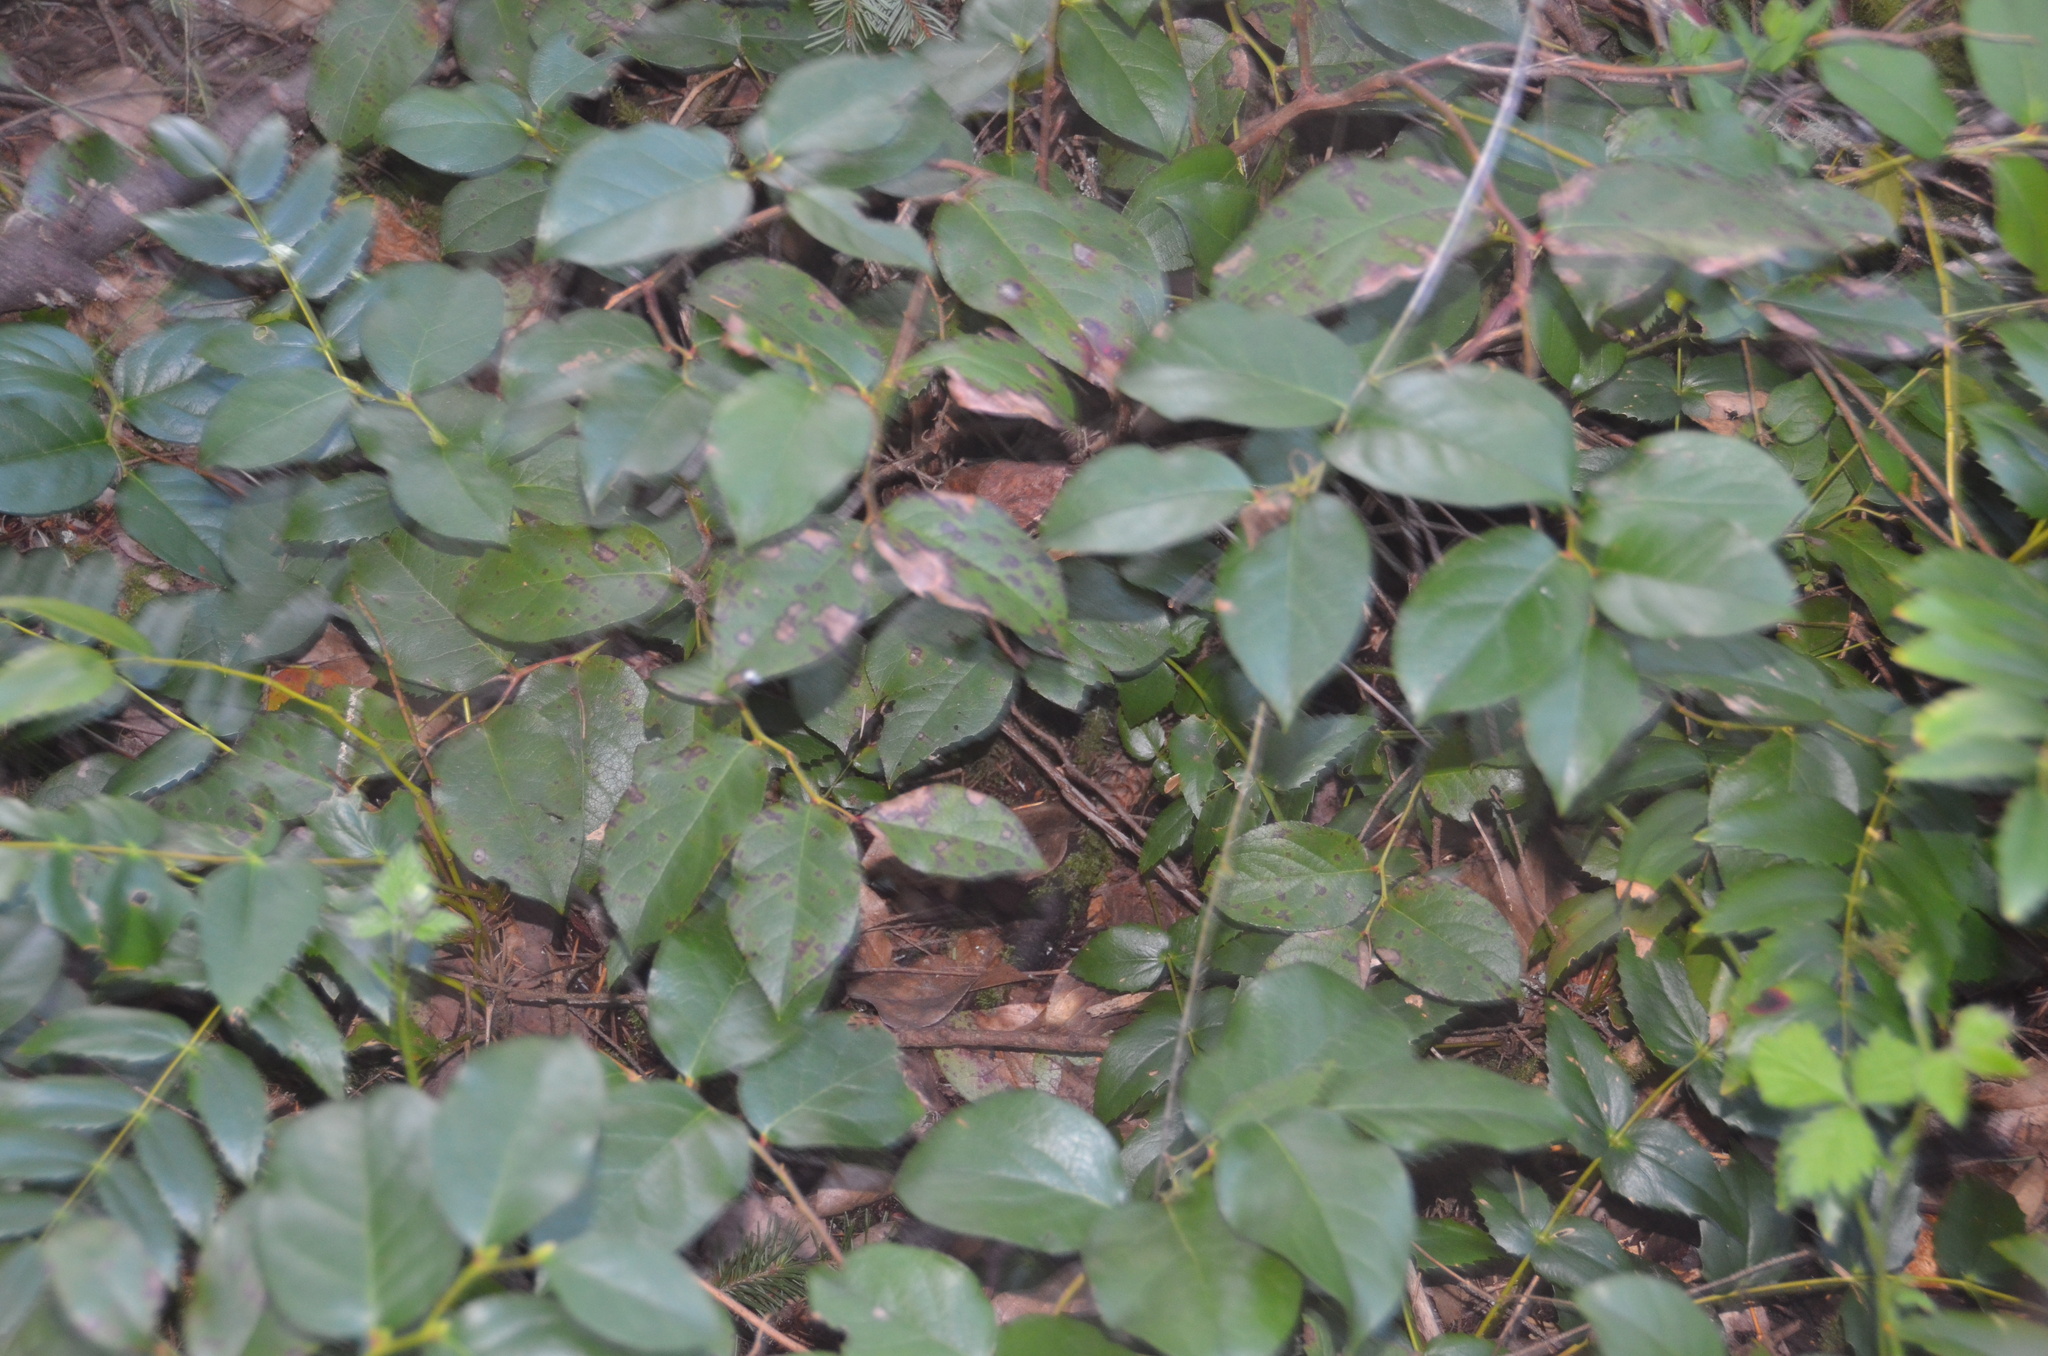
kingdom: Plantae
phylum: Tracheophyta
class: Magnoliopsida
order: Ericales
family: Ericaceae
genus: Gaultheria
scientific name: Gaultheria shallon
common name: Shallon
